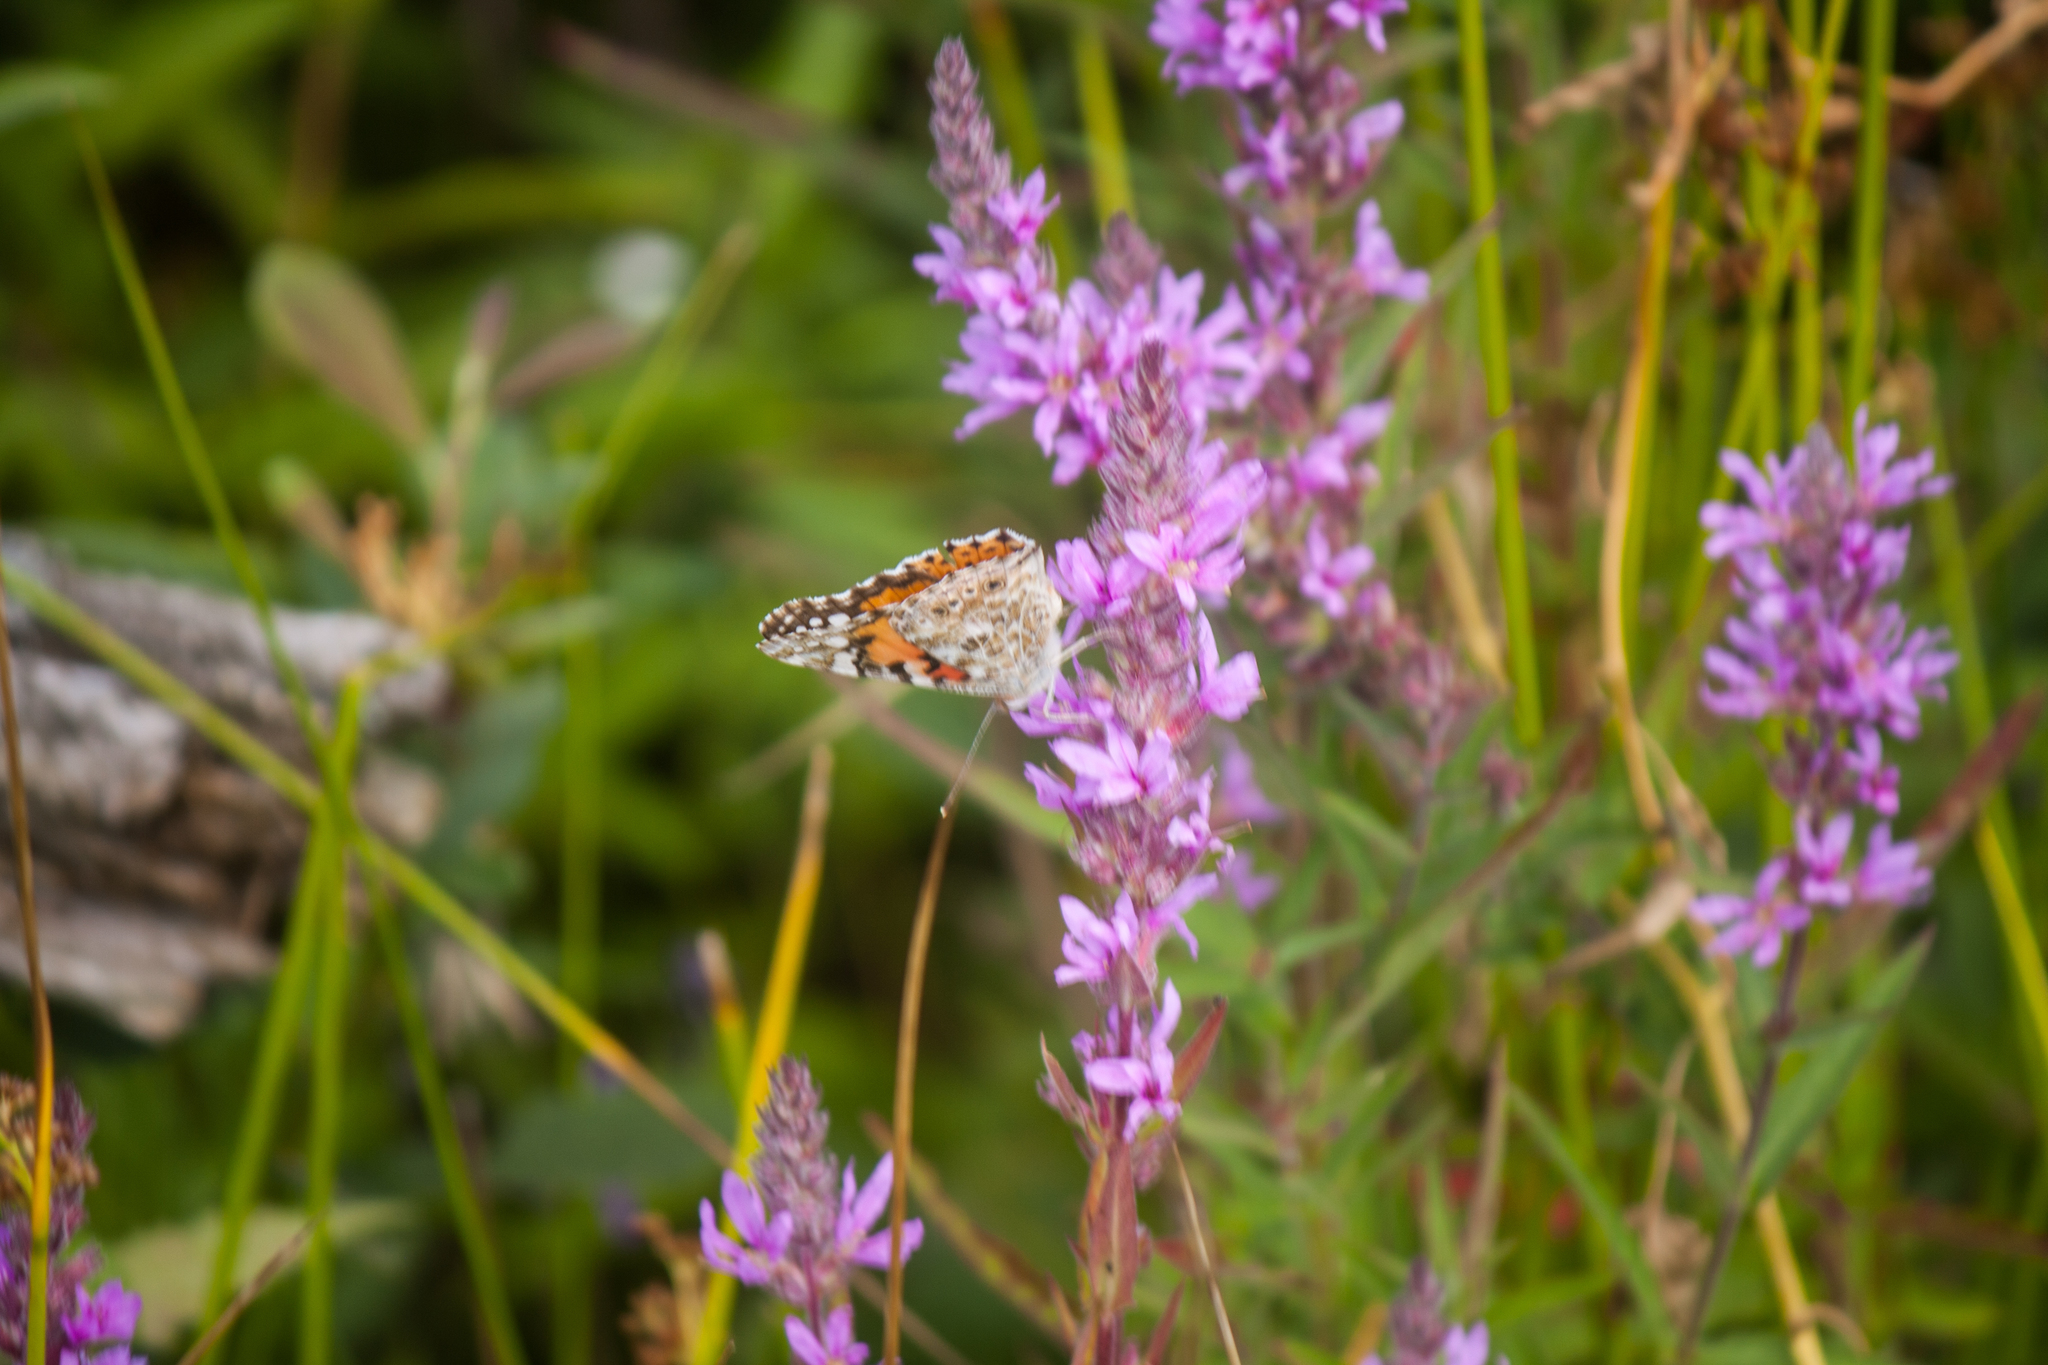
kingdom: Animalia
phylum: Arthropoda
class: Insecta
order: Lepidoptera
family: Nymphalidae
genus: Vanessa
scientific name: Vanessa cardui
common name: Painted lady
